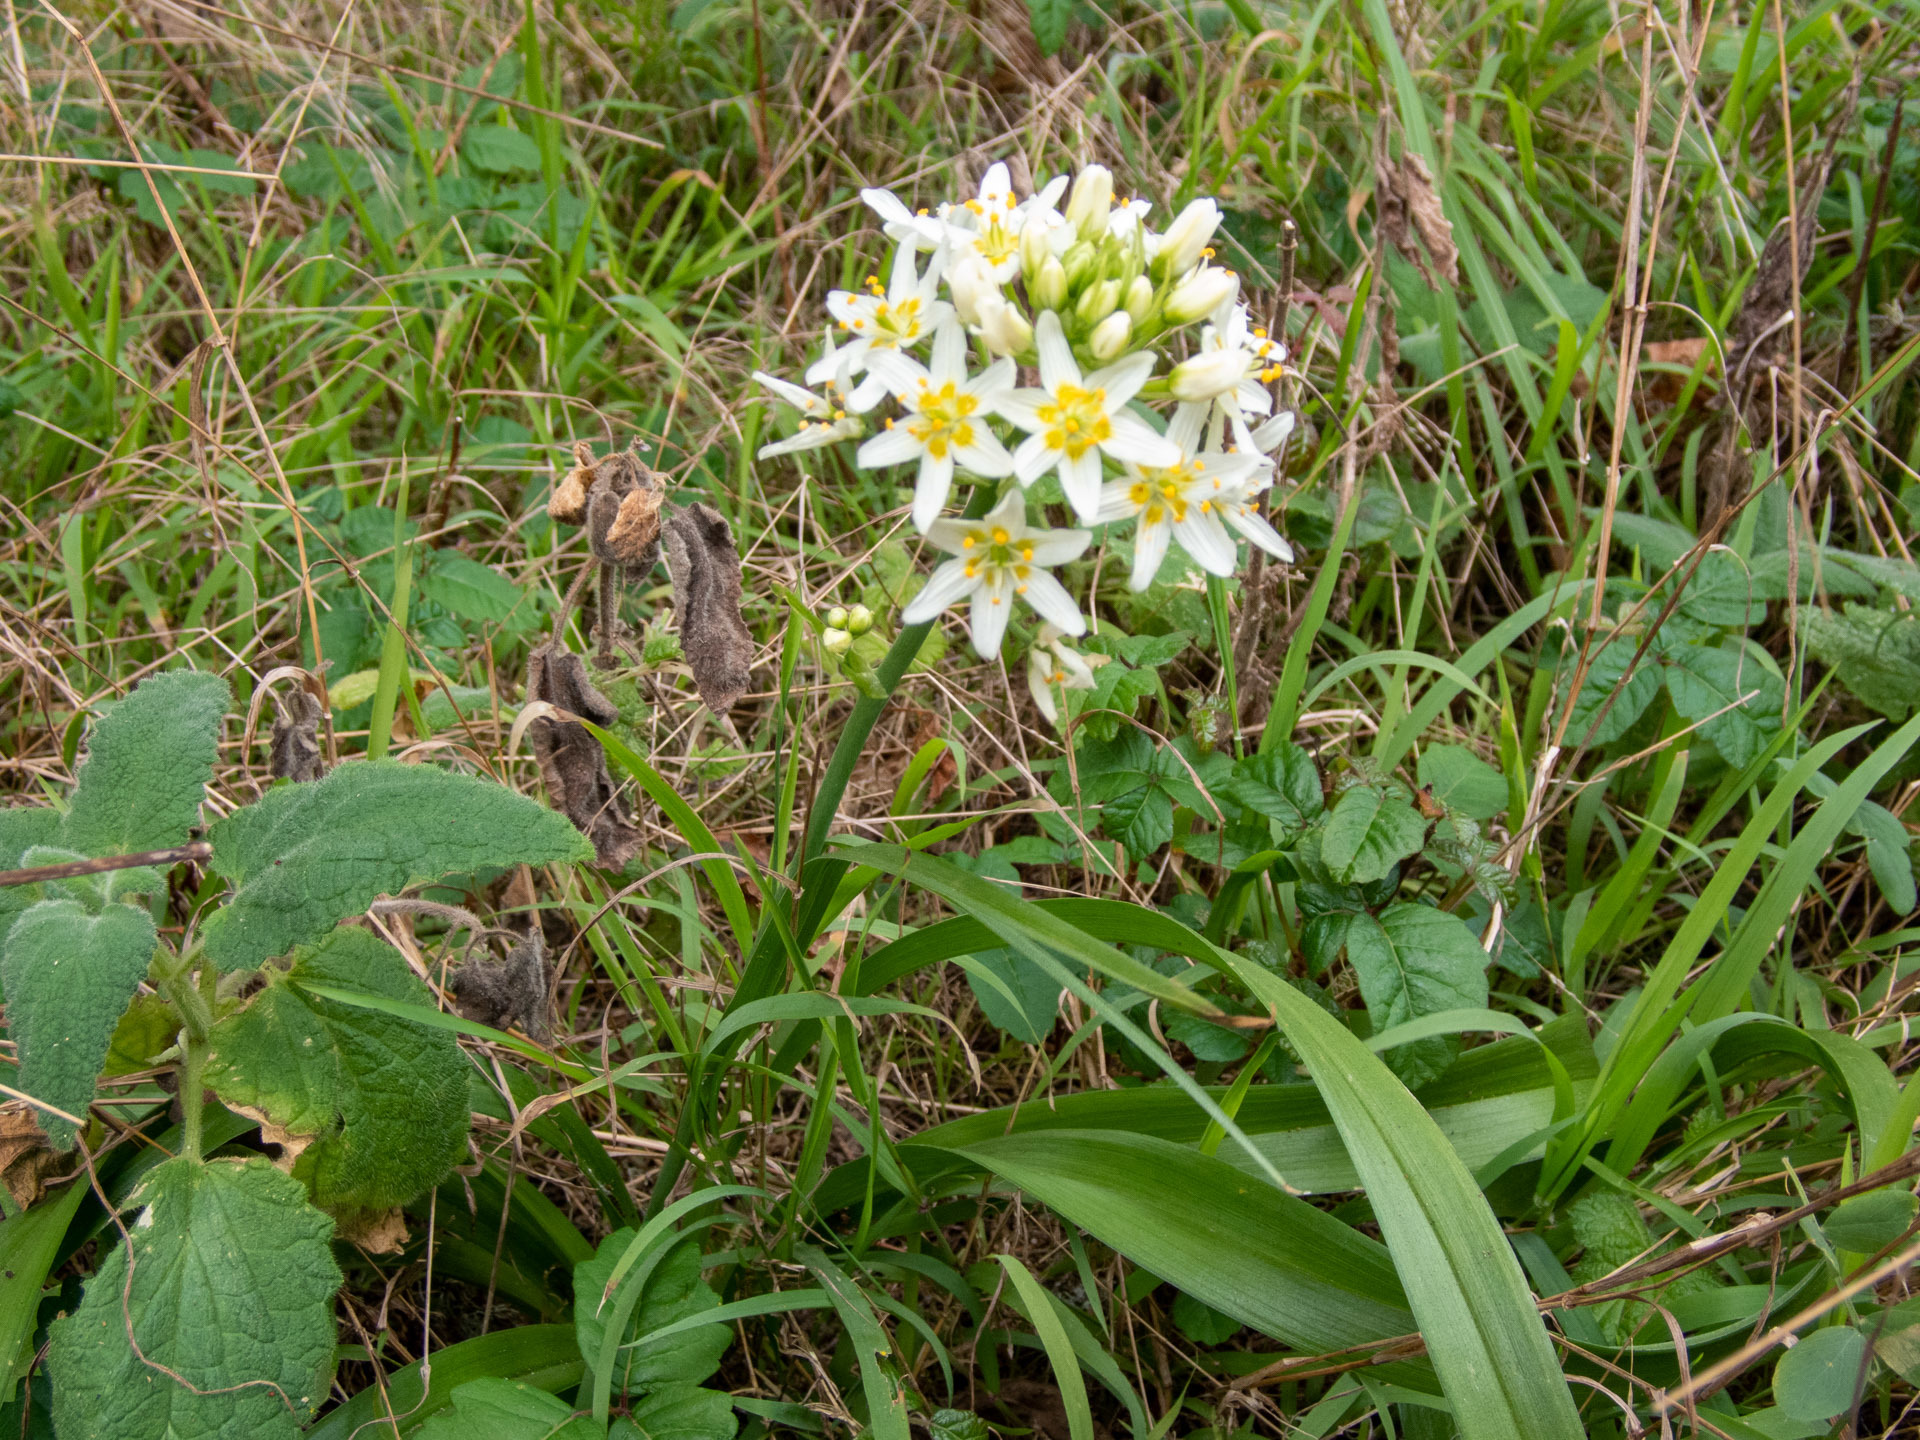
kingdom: Plantae
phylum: Tracheophyta
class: Liliopsida
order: Liliales
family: Melanthiaceae
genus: Toxicoscordion
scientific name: Toxicoscordion fremontii
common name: Fremont's death camas
